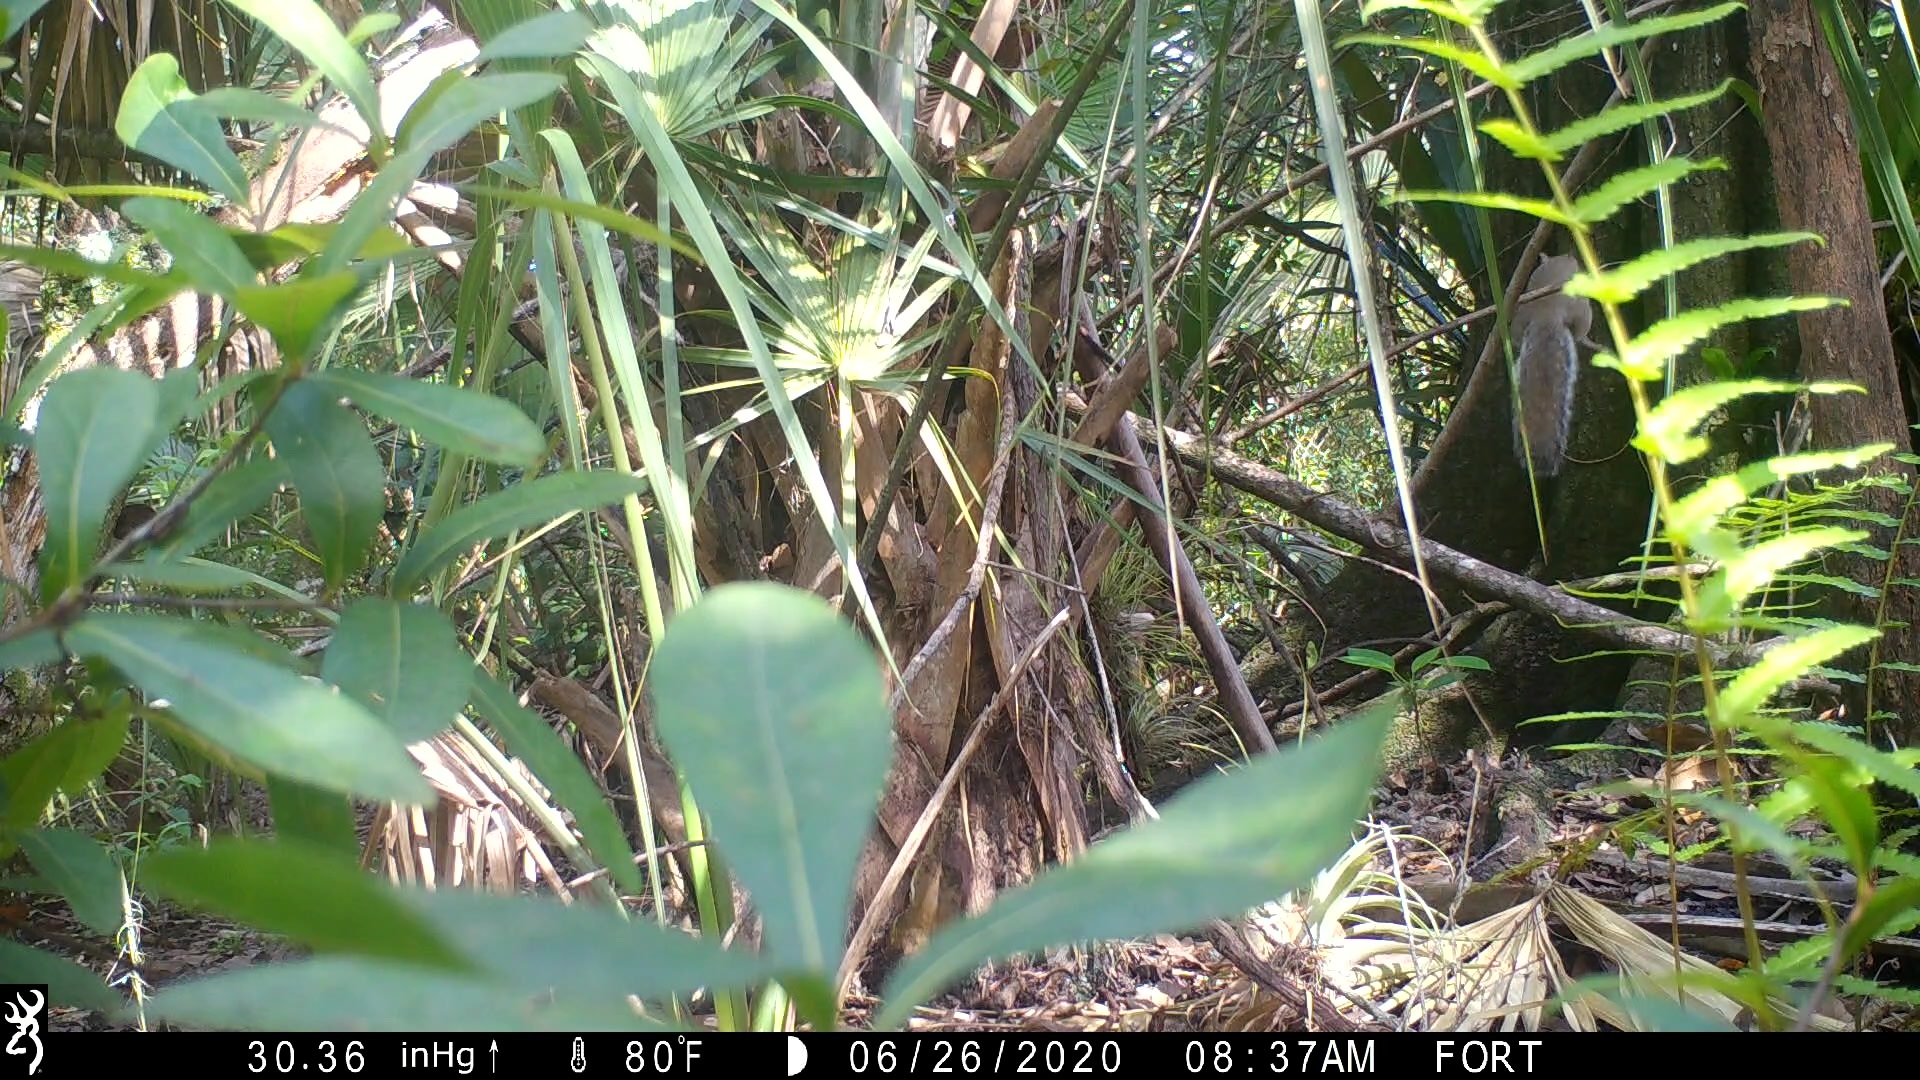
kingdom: Animalia
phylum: Chordata
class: Mammalia
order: Rodentia
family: Sciuridae
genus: Sciurus
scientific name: Sciurus carolinensis
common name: Eastern gray squirrel
